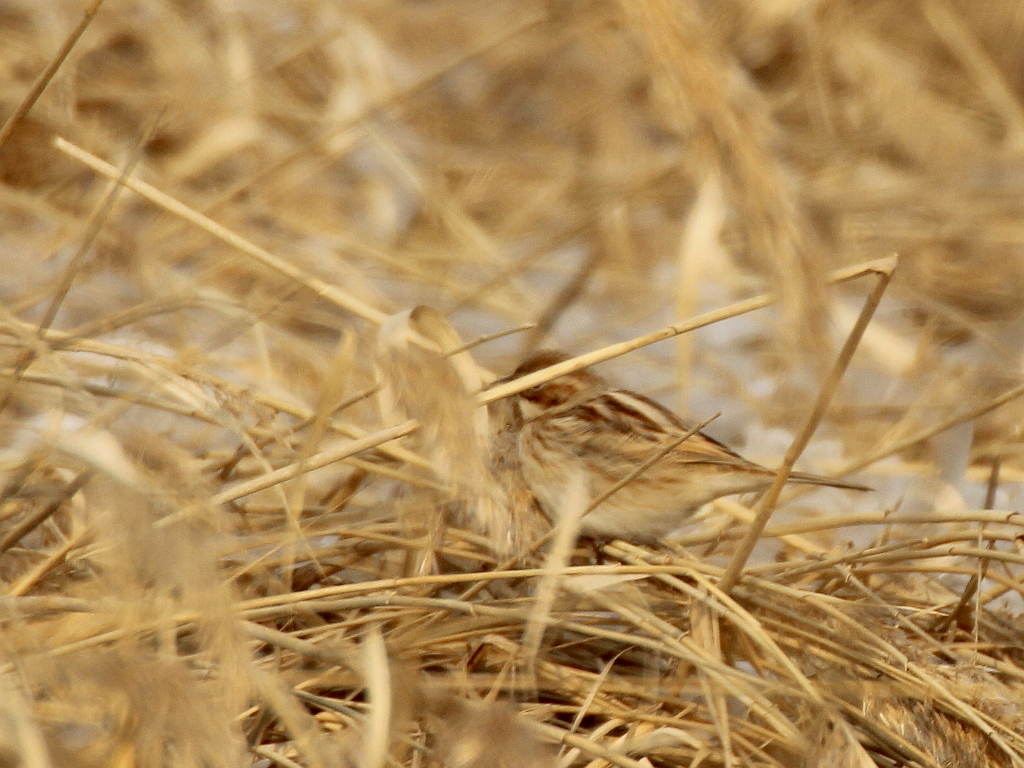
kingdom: Animalia
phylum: Chordata
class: Aves
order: Passeriformes
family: Emberizidae
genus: Emberiza
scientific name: Emberiza pallasi
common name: Pallas's reed bunting
